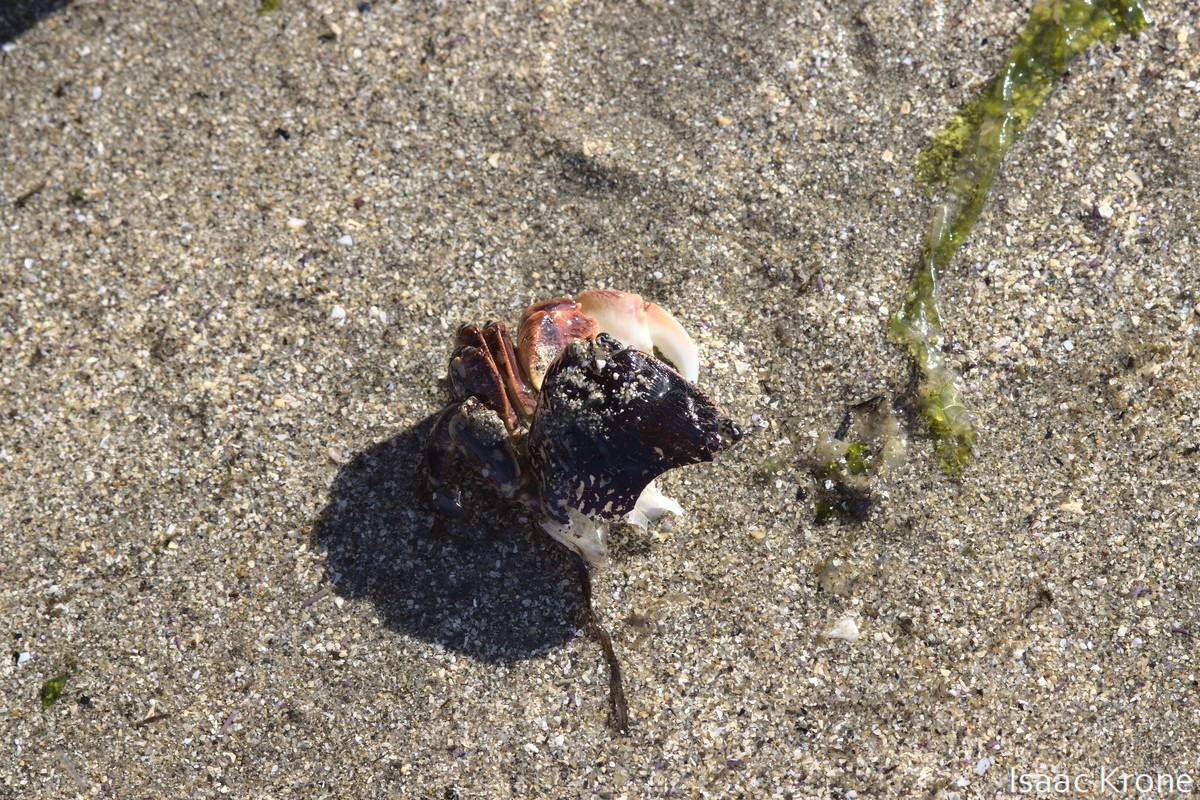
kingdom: Animalia
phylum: Arthropoda
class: Malacostraca
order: Decapoda
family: Grapsidae
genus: Pachygrapsus
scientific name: Pachygrapsus crassipes
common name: Striped shore crab
